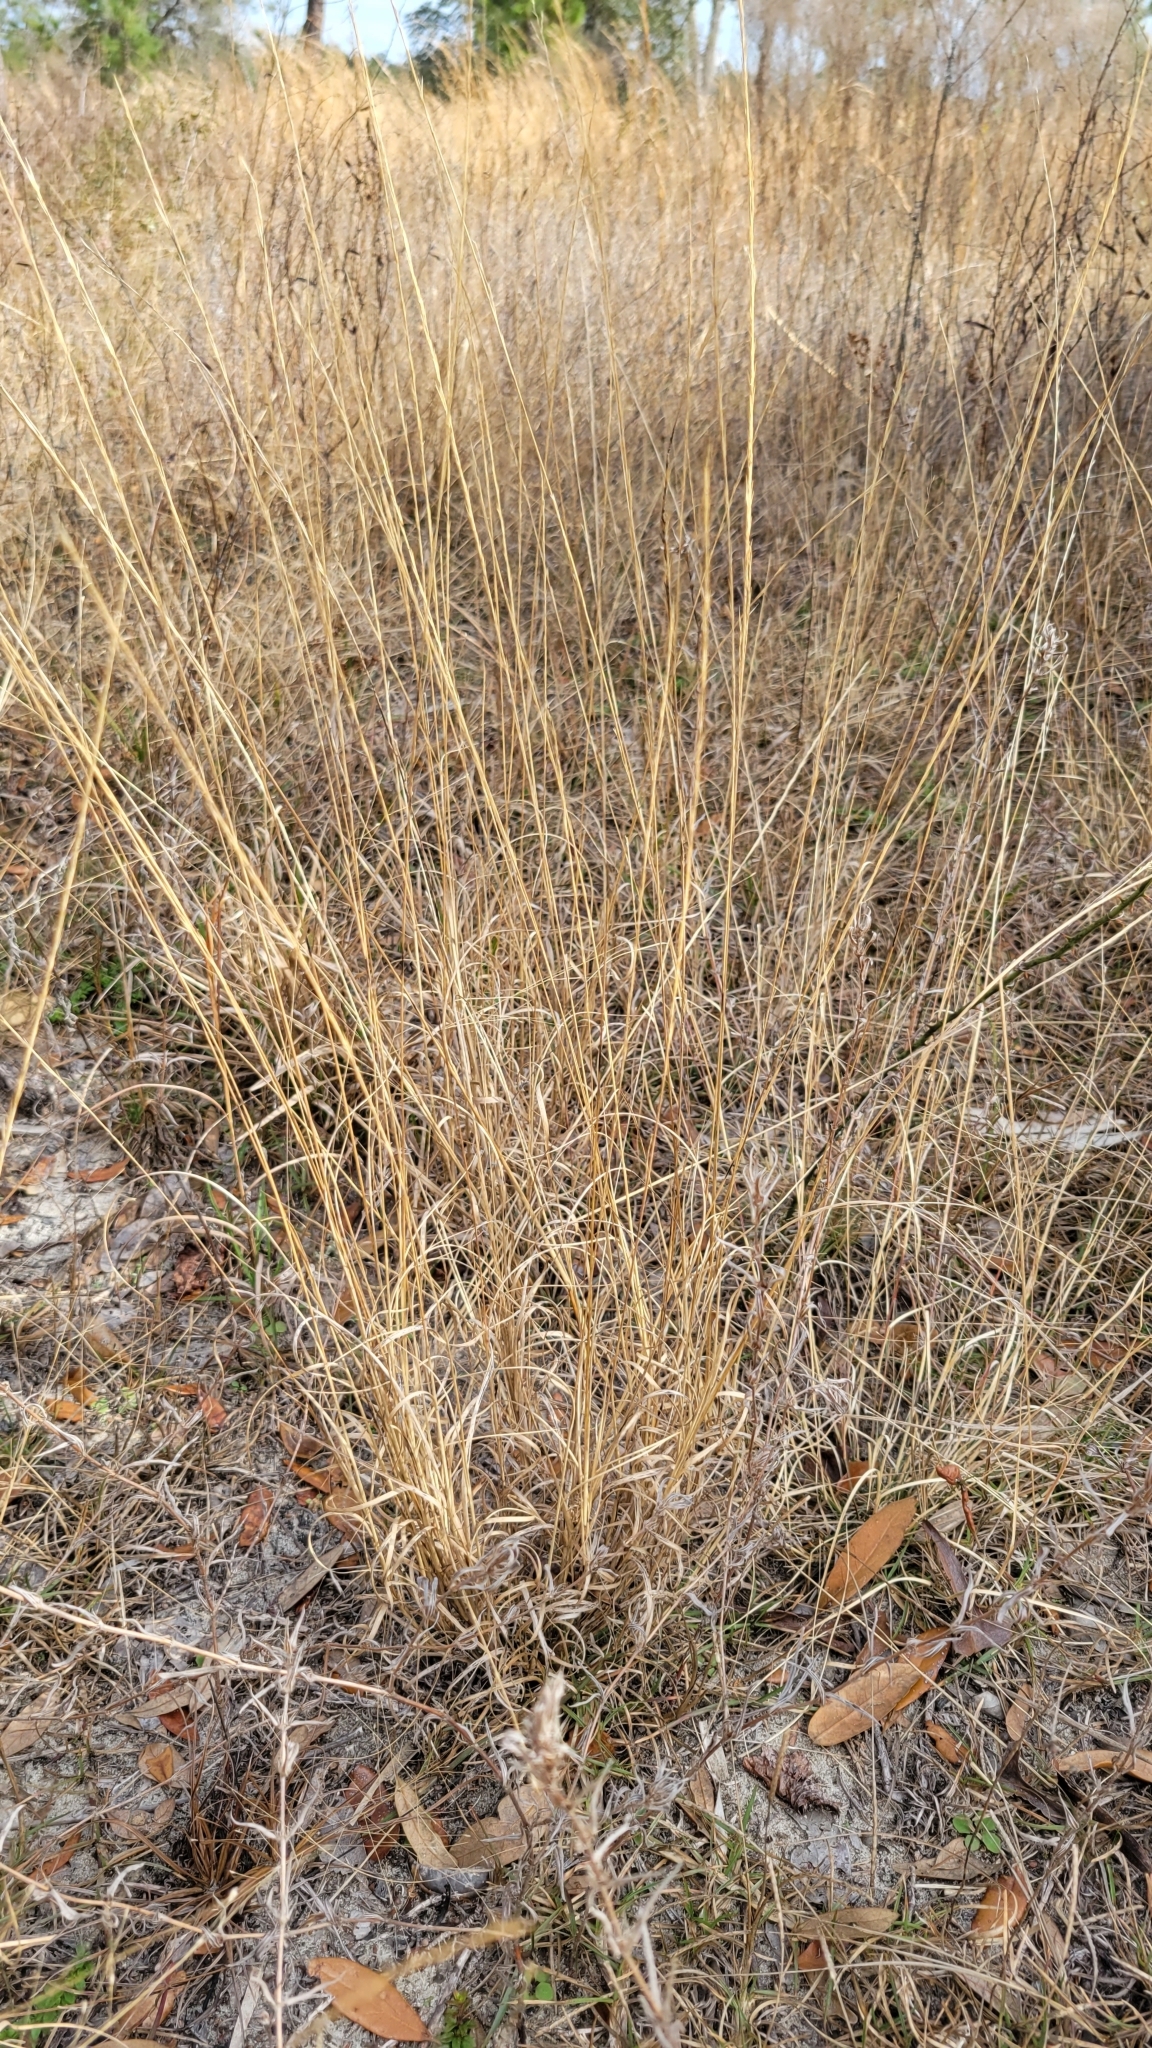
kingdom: Plantae
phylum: Tracheophyta
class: Liliopsida
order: Poales
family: Poaceae
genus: Aristida
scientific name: Aristida purpurascens
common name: Arrow-feather
